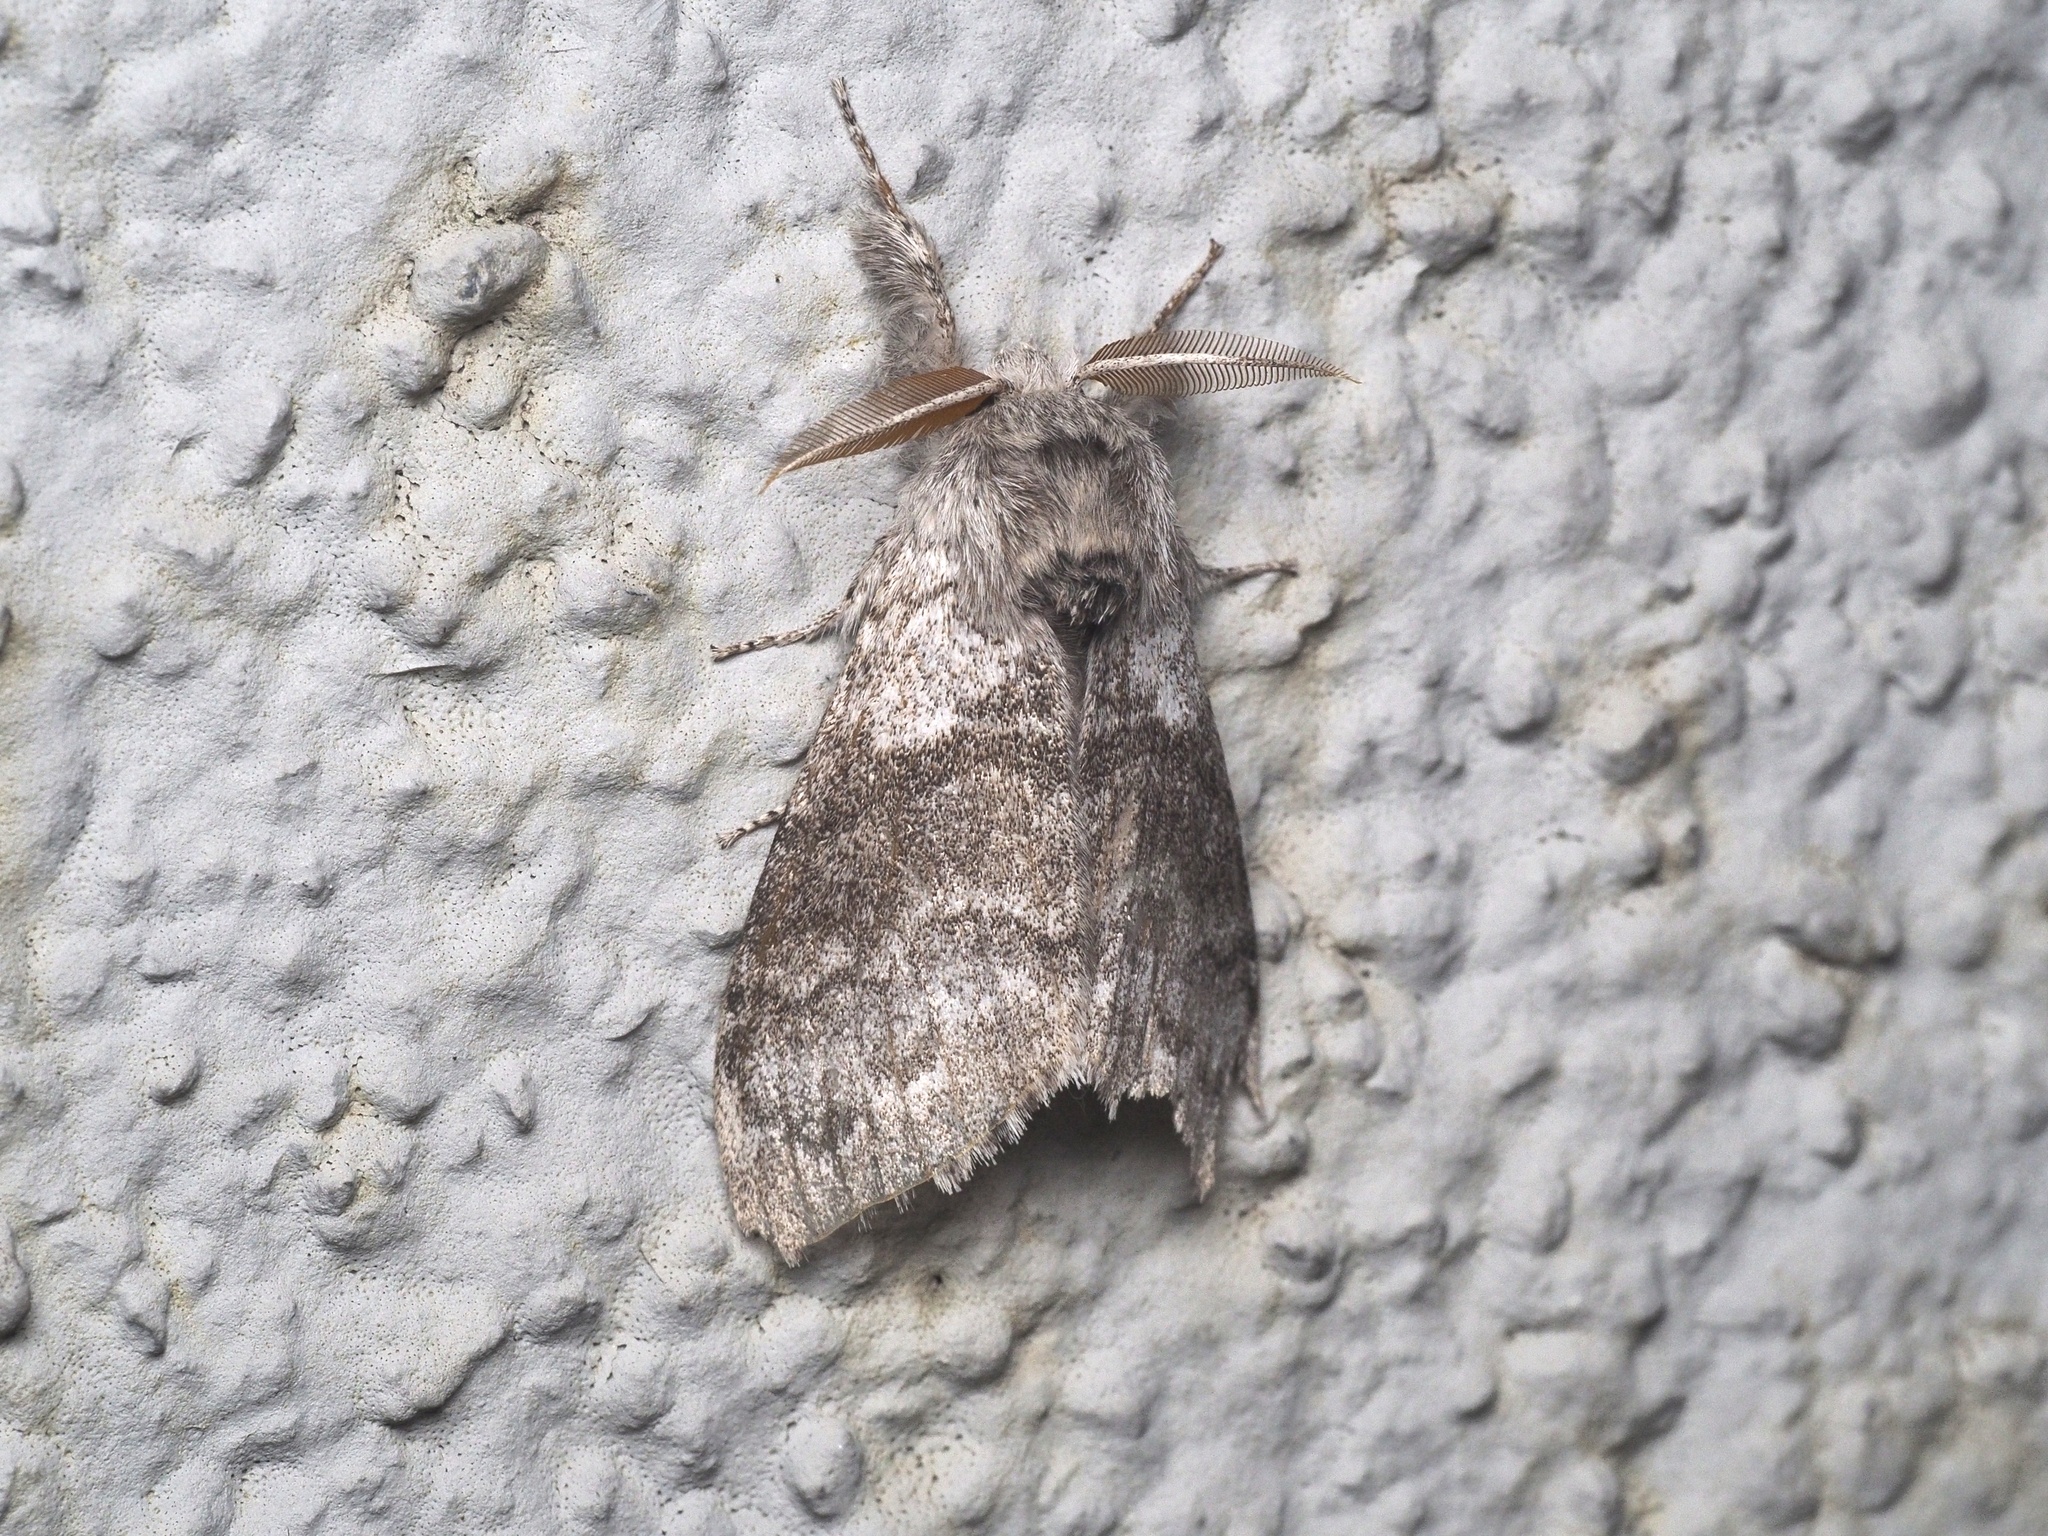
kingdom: Animalia
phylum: Arthropoda
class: Insecta
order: Lepidoptera
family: Erebidae
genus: Calliteara
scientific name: Calliteara pudibunda
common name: Pale tussock
